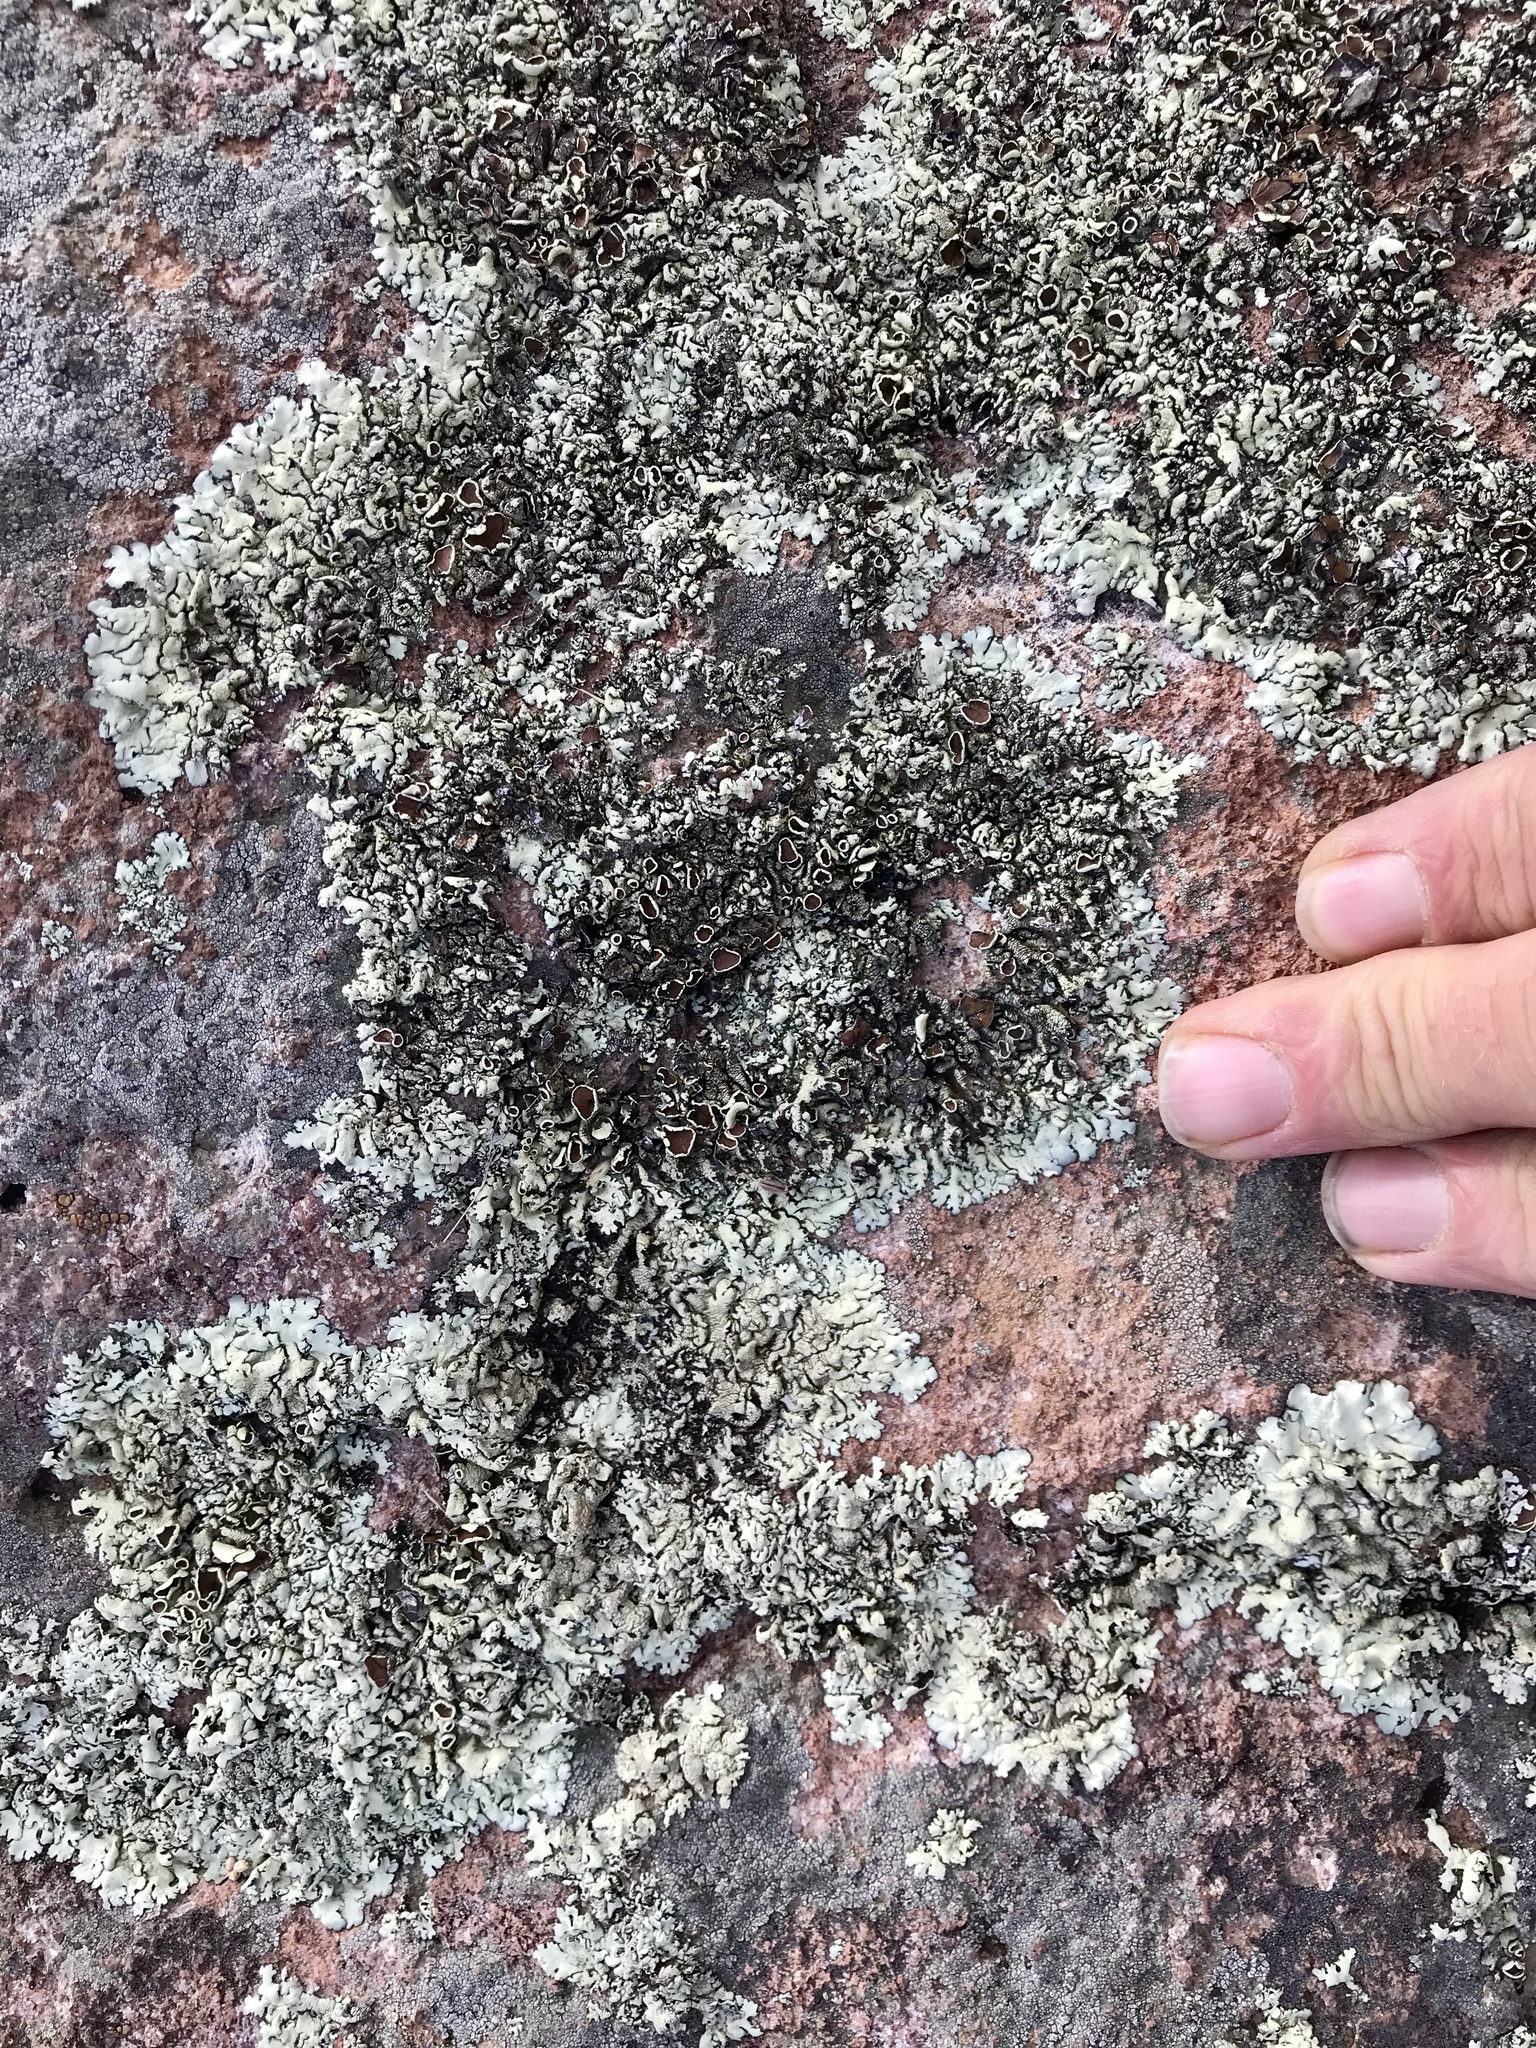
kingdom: Fungi
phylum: Ascomycota
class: Lecanoromycetes
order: Lecanorales
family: Parmeliaceae
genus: Xanthoparmelia
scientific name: Xanthoparmelia cumberlandia
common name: Cumberland rock shield
